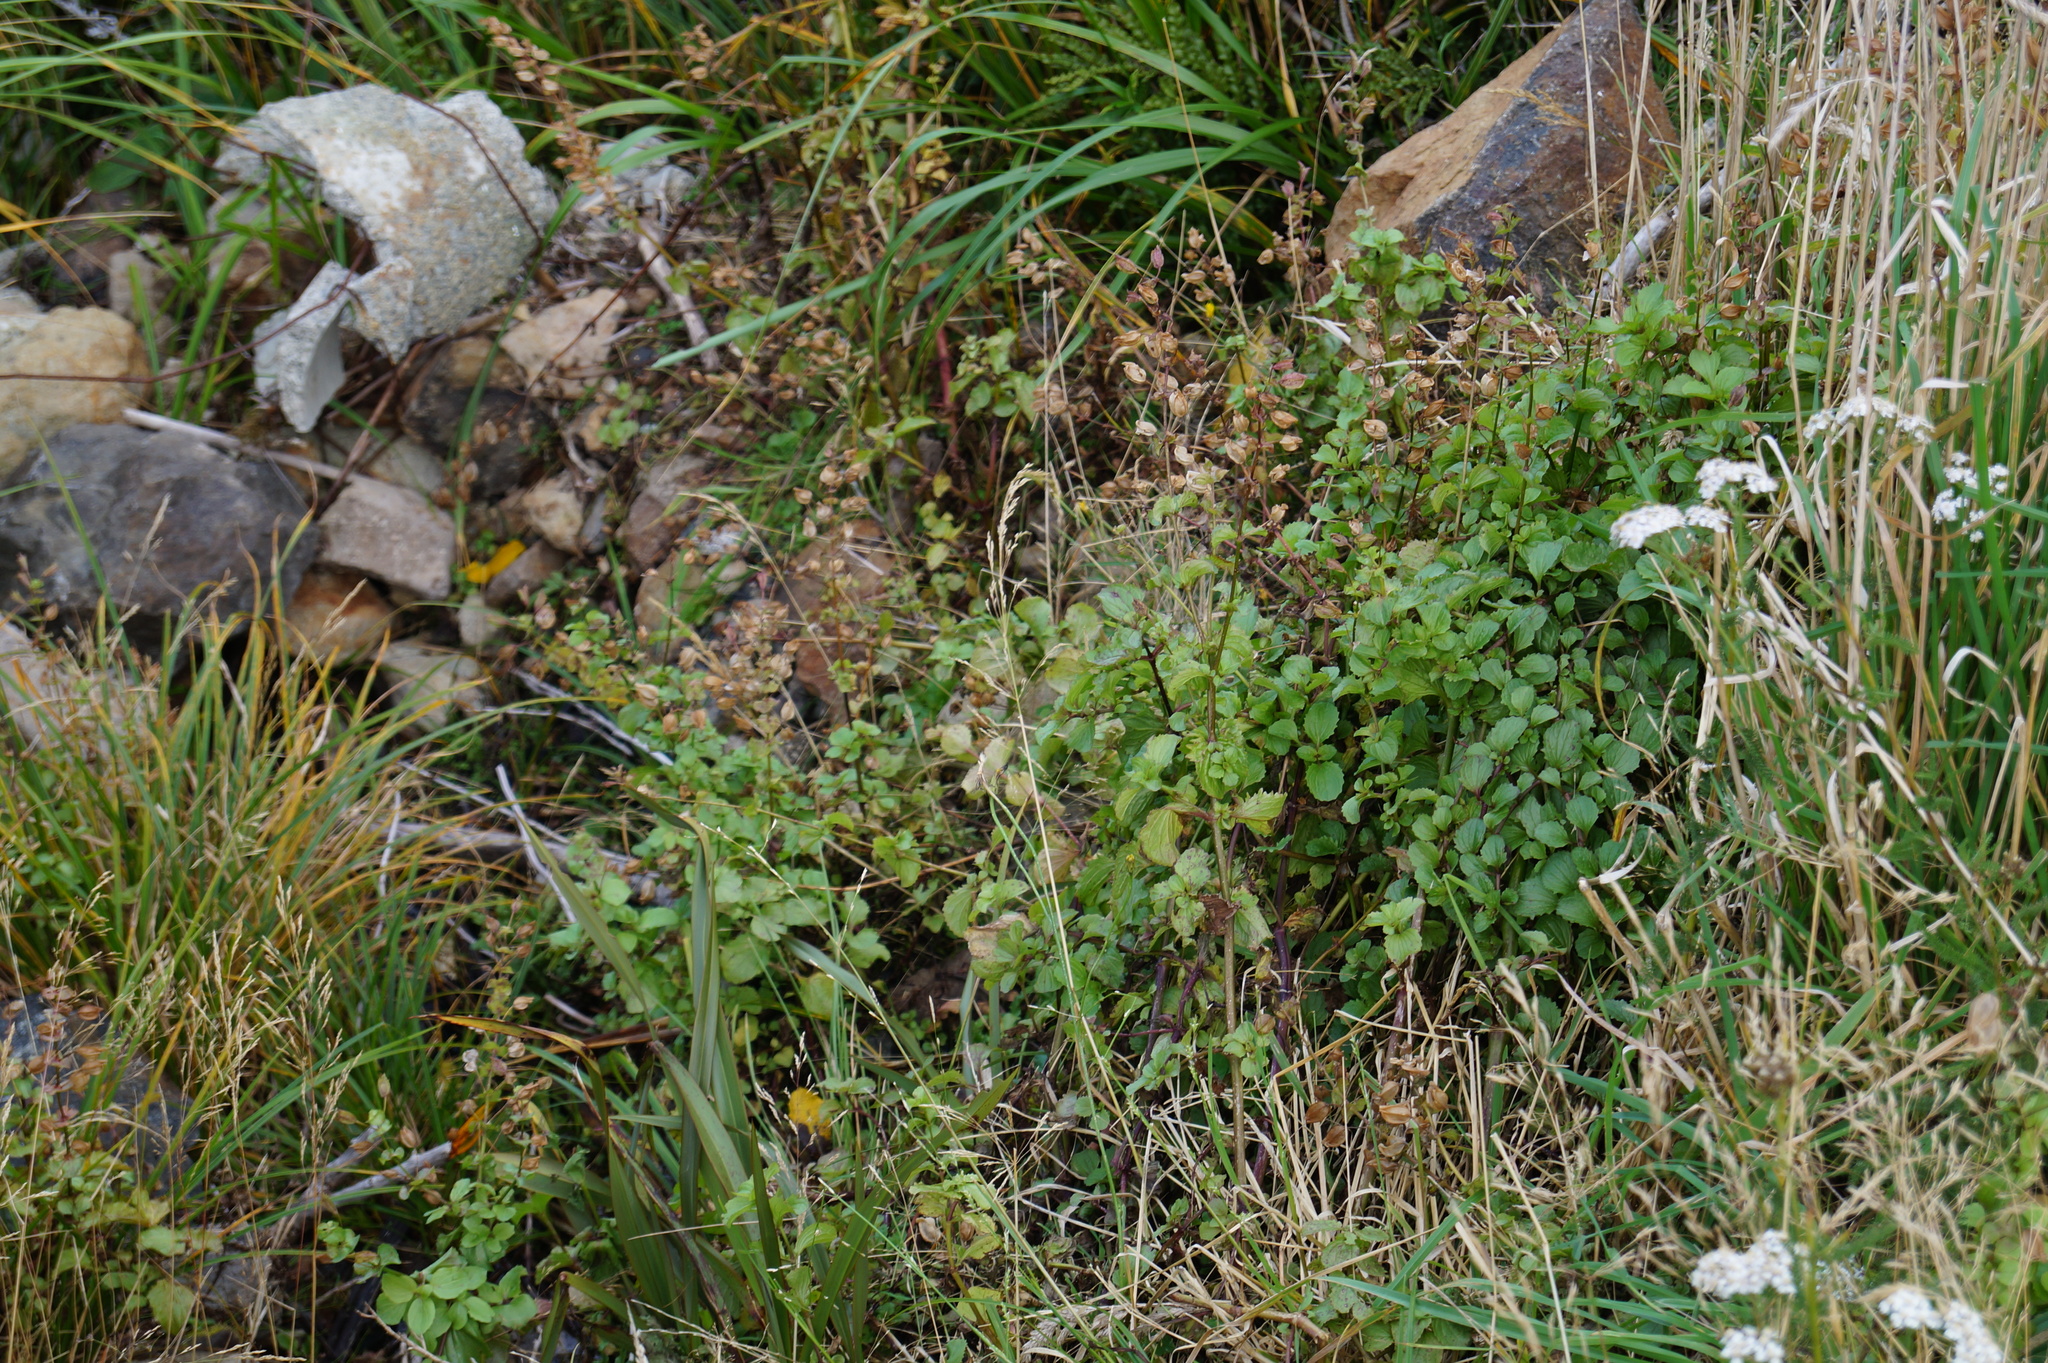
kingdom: Plantae
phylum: Tracheophyta
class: Magnoliopsida
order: Lamiales
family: Phrymaceae
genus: Erythranthe
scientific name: Erythranthe guttata
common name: Monkeyflower
